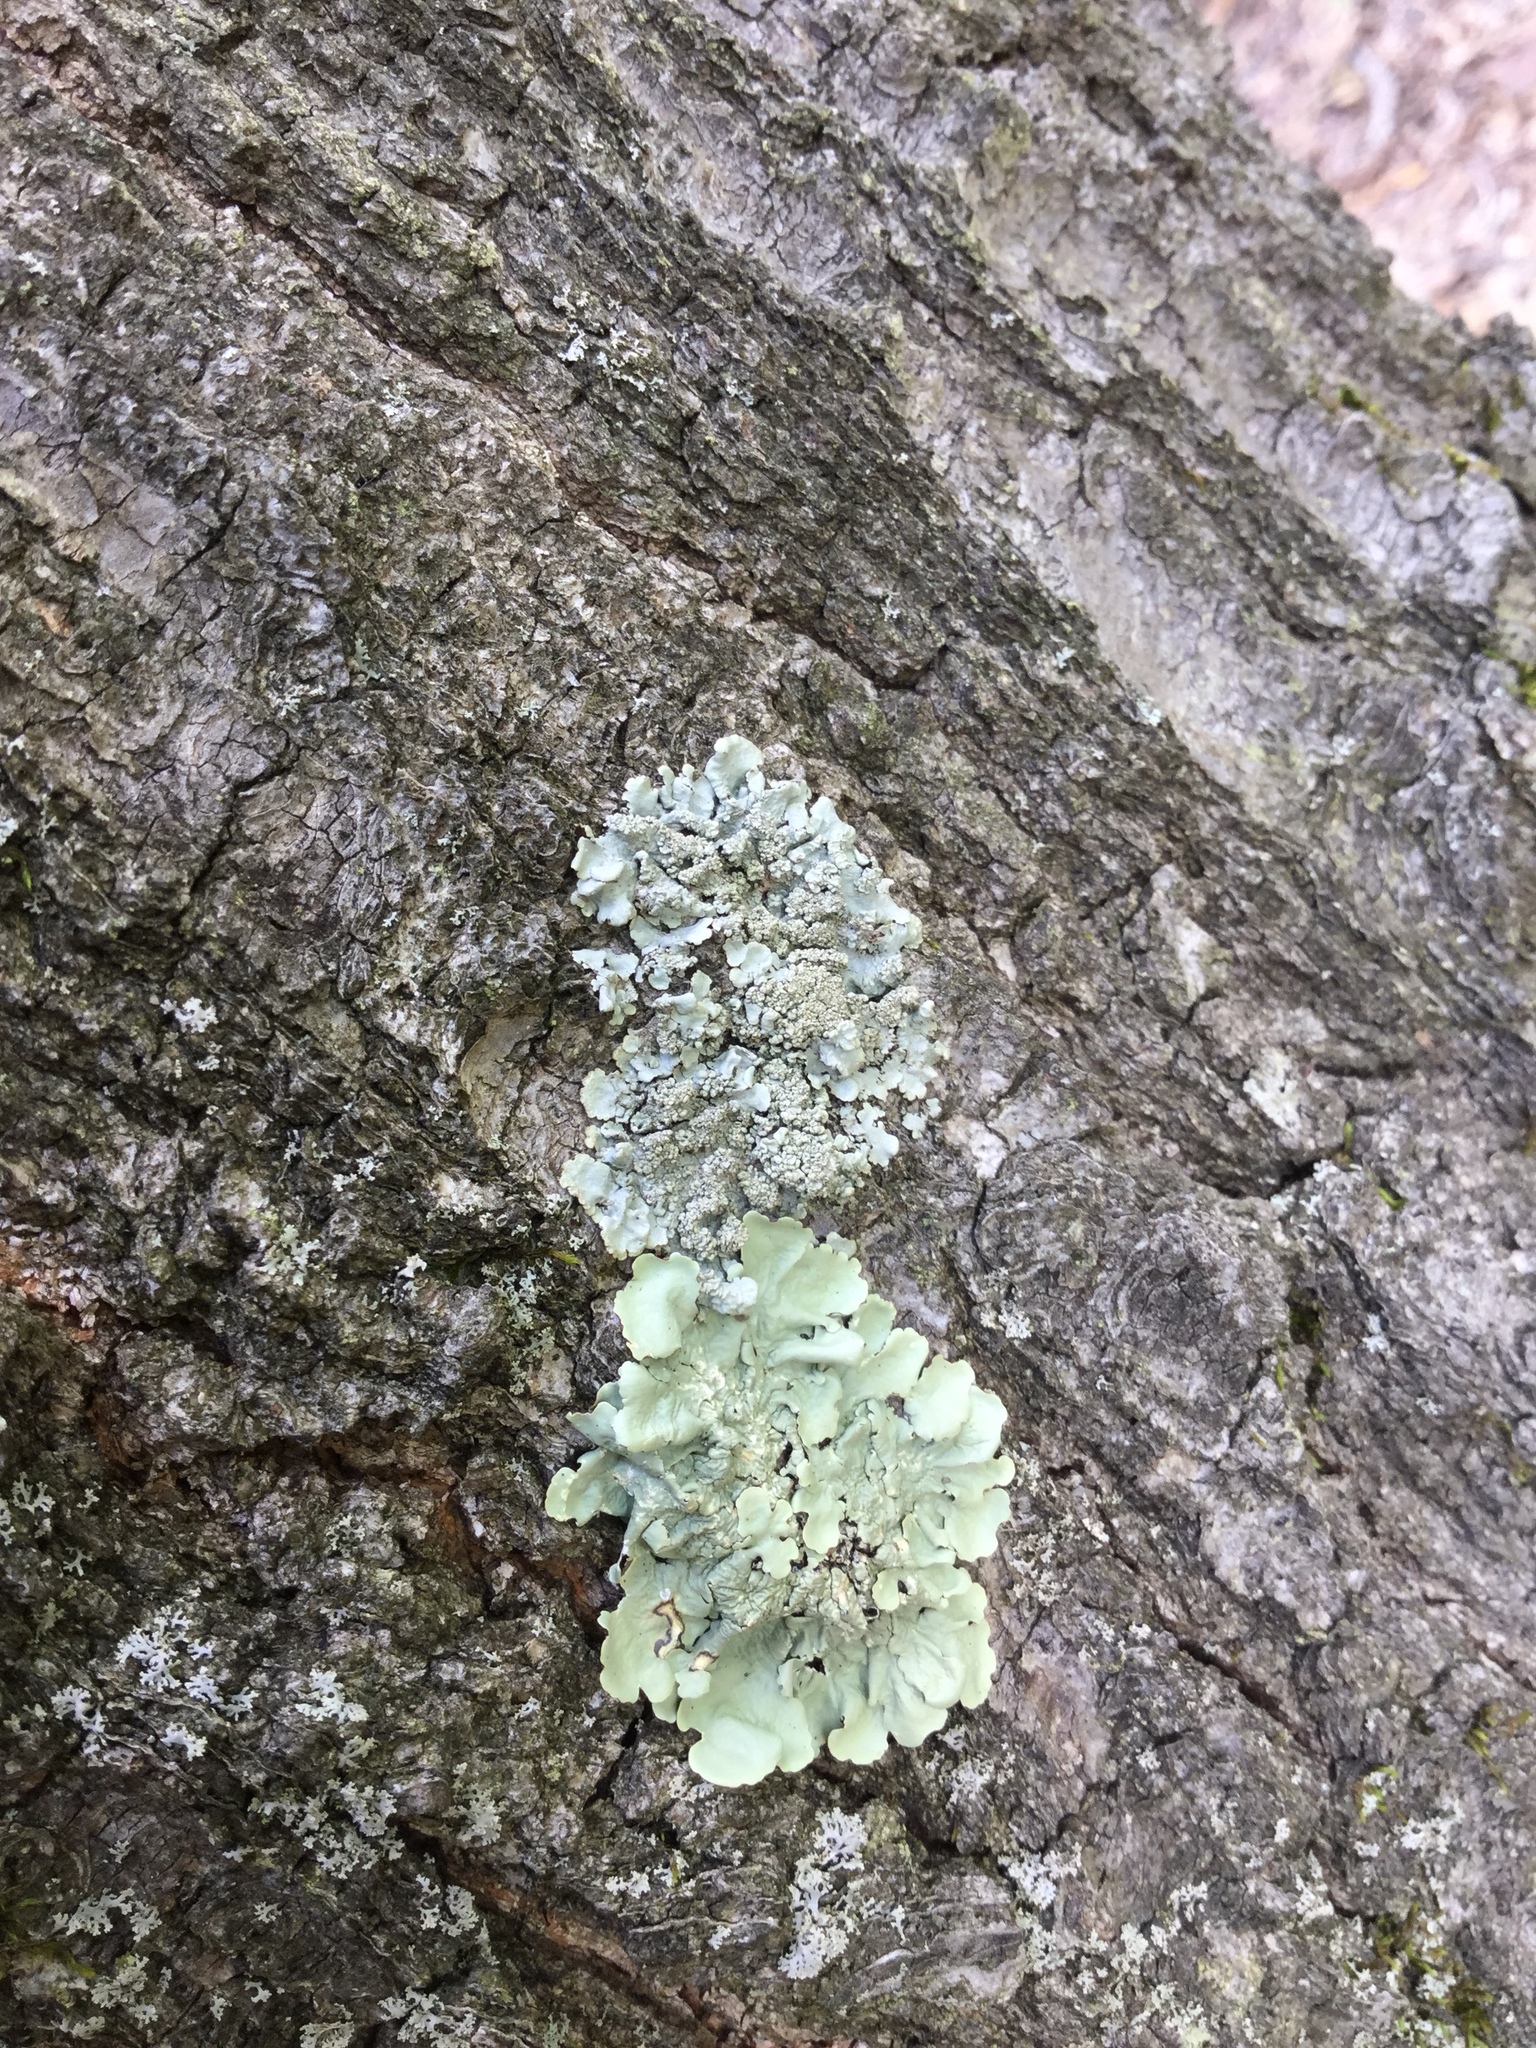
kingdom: Fungi
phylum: Ascomycota
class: Lecanoromycetes
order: Lecanorales
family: Parmeliaceae
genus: Hypotrachyna
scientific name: Hypotrachyna showmanii
